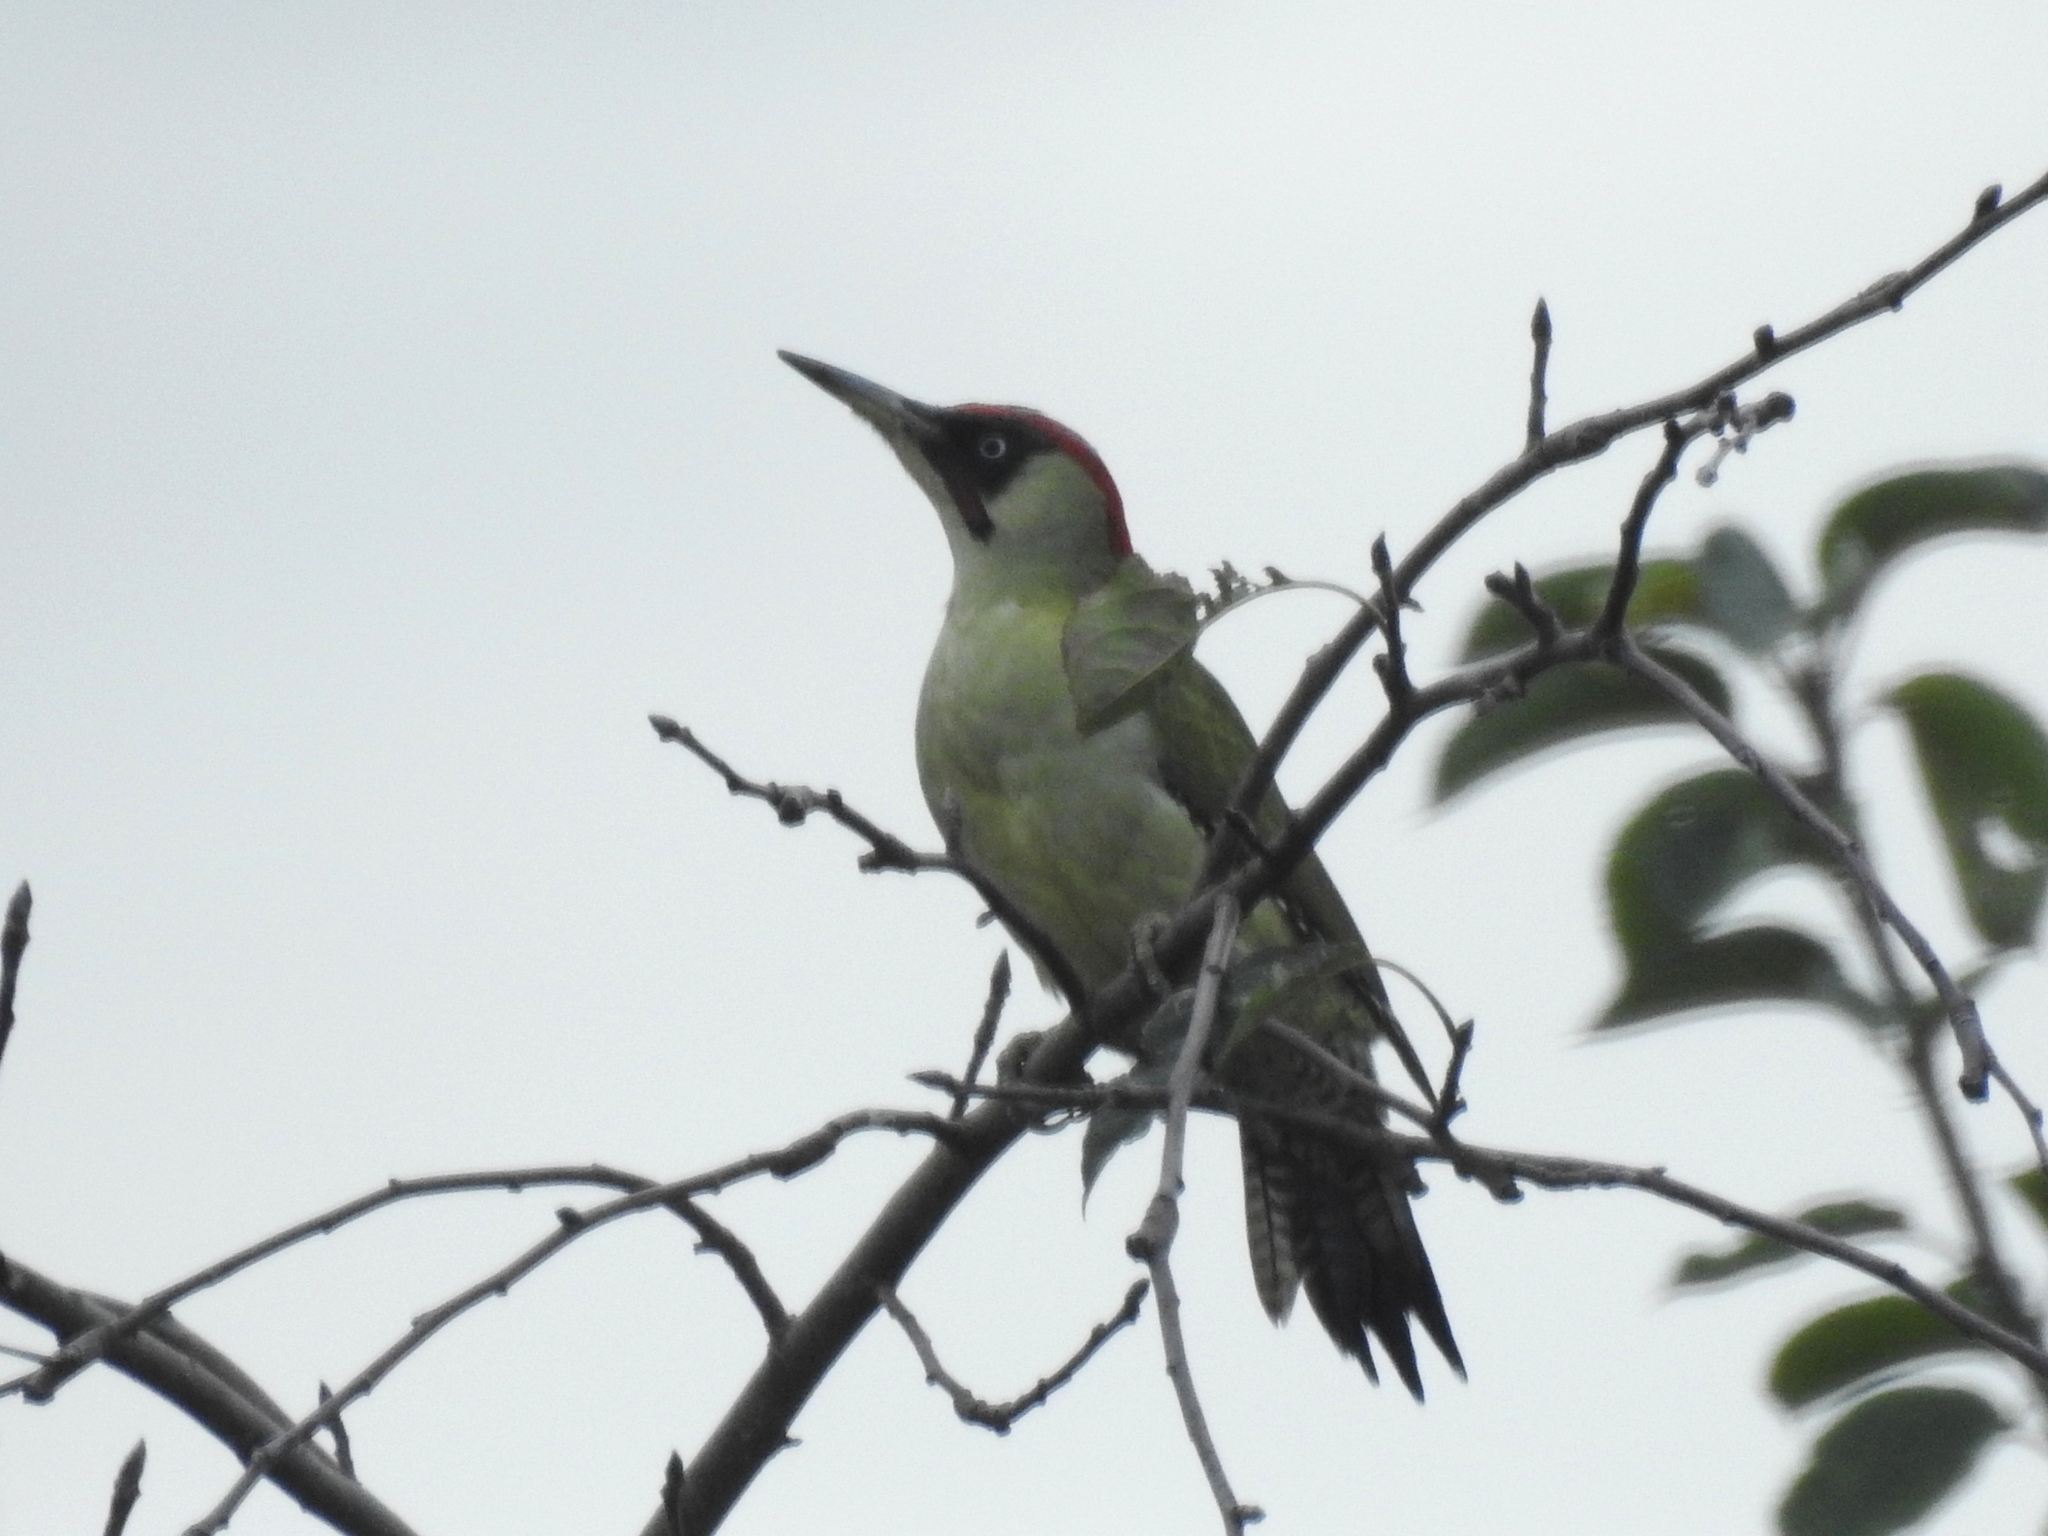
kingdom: Animalia
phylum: Chordata
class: Aves
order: Piciformes
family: Picidae
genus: Picus
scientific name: Picus viridis
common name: European green woodpecker
